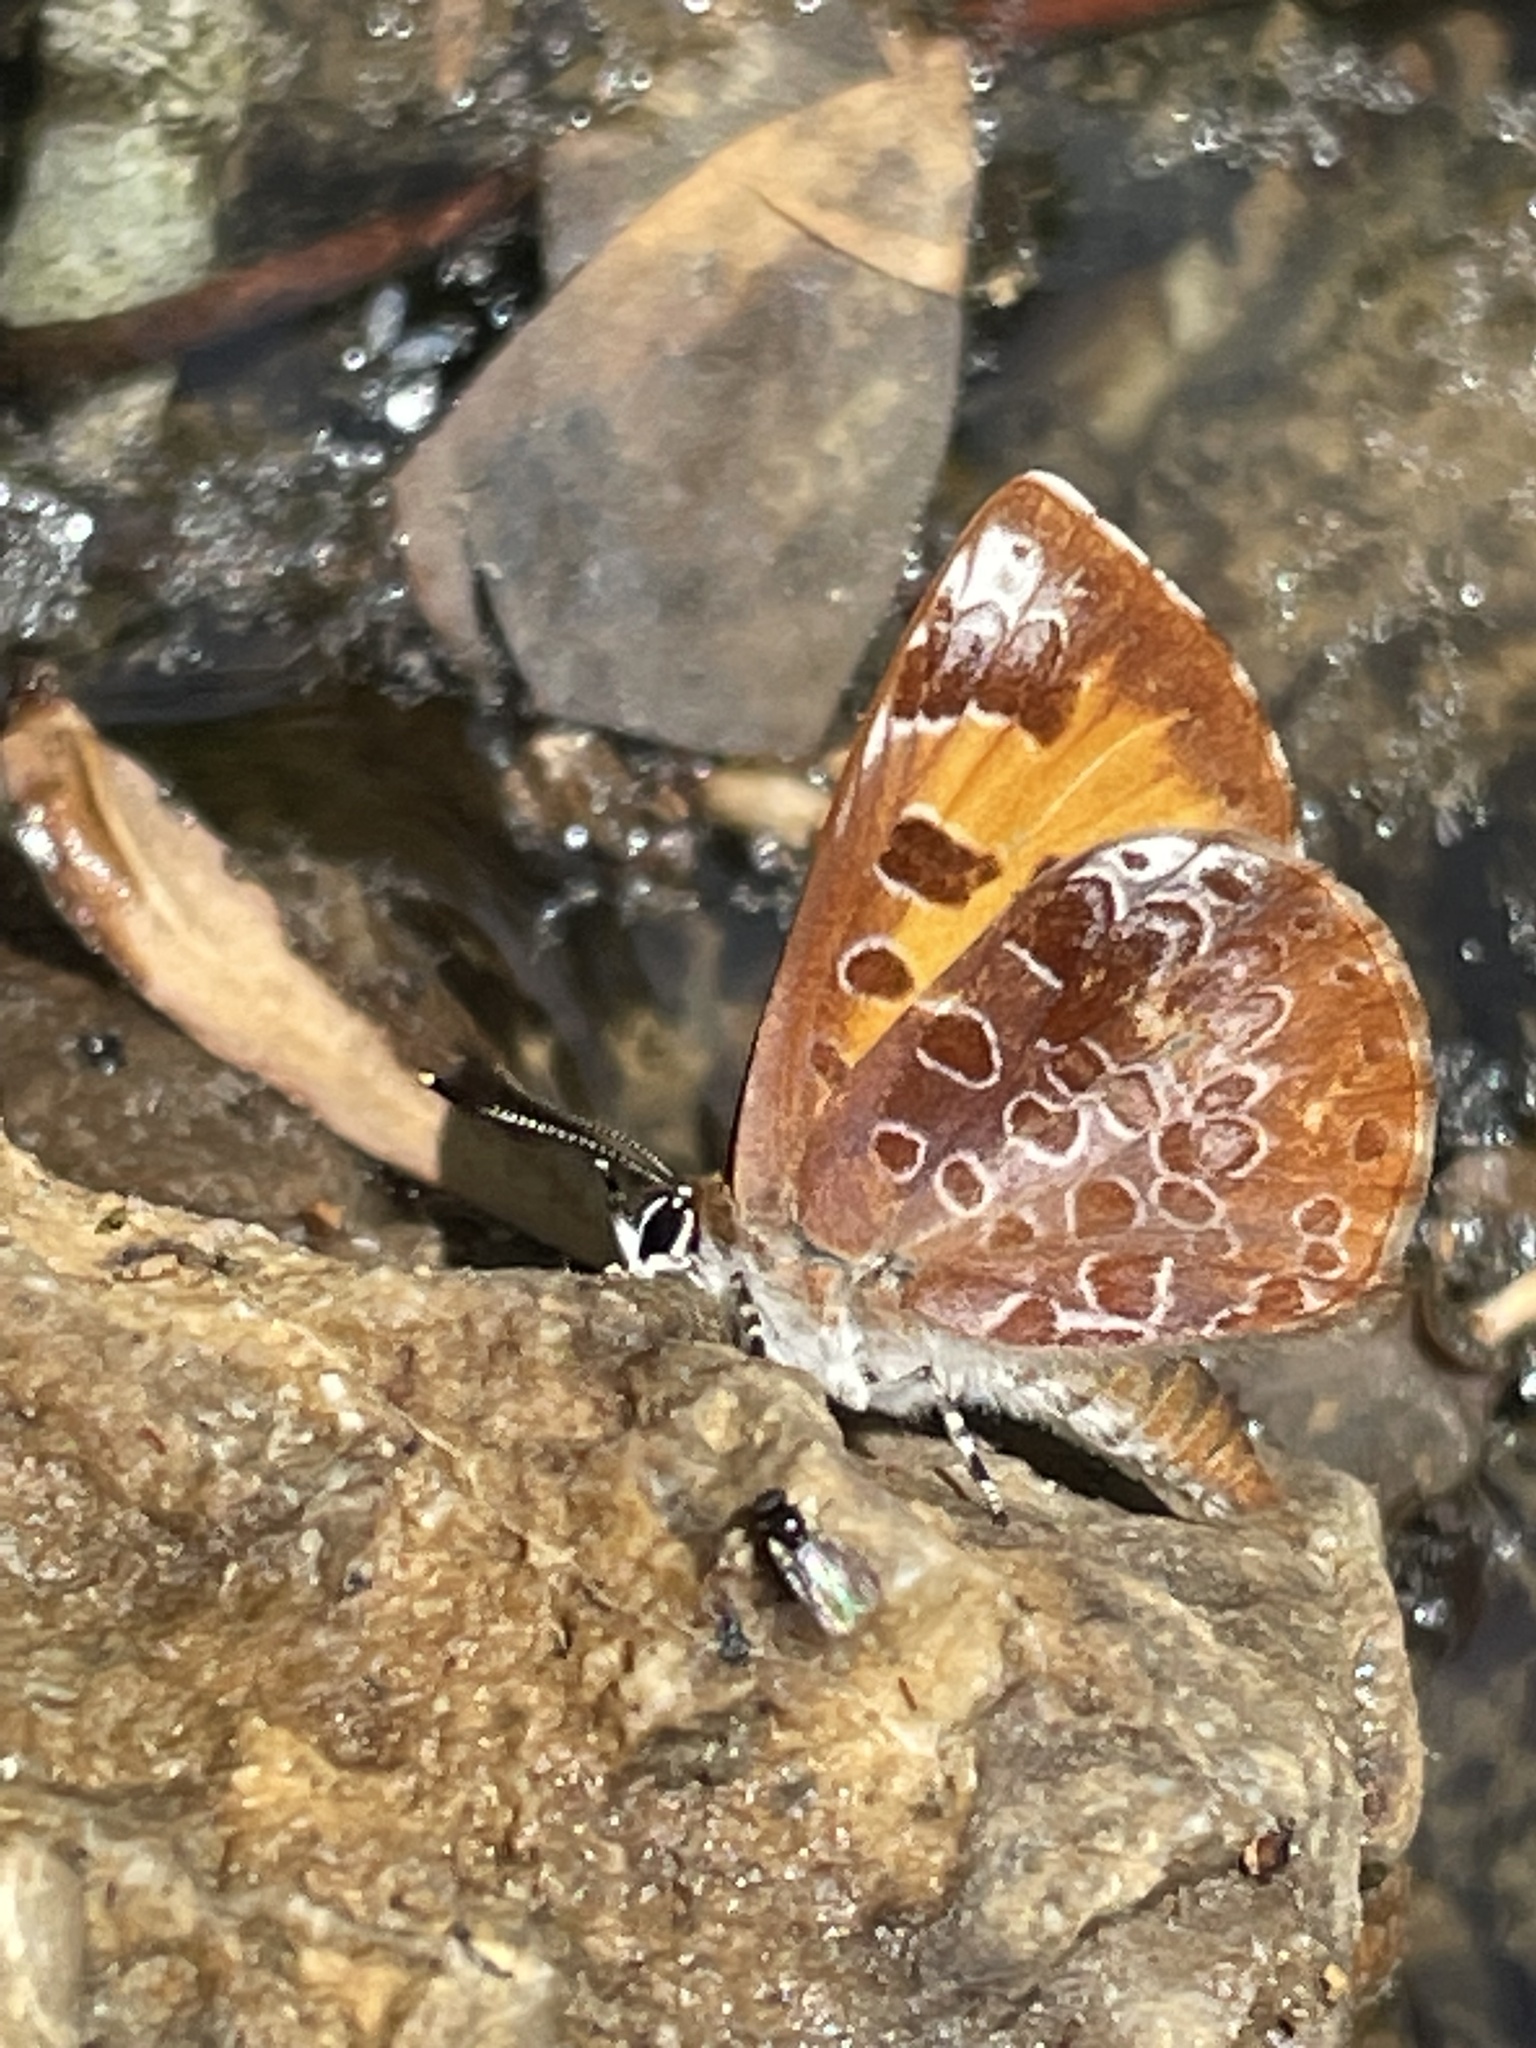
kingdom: Animalia
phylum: Arthropoda
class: Insecta
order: Lepidoptera
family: Lycaenidae
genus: Feniseca
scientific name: Feniseca tarquinius
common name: Harvester
